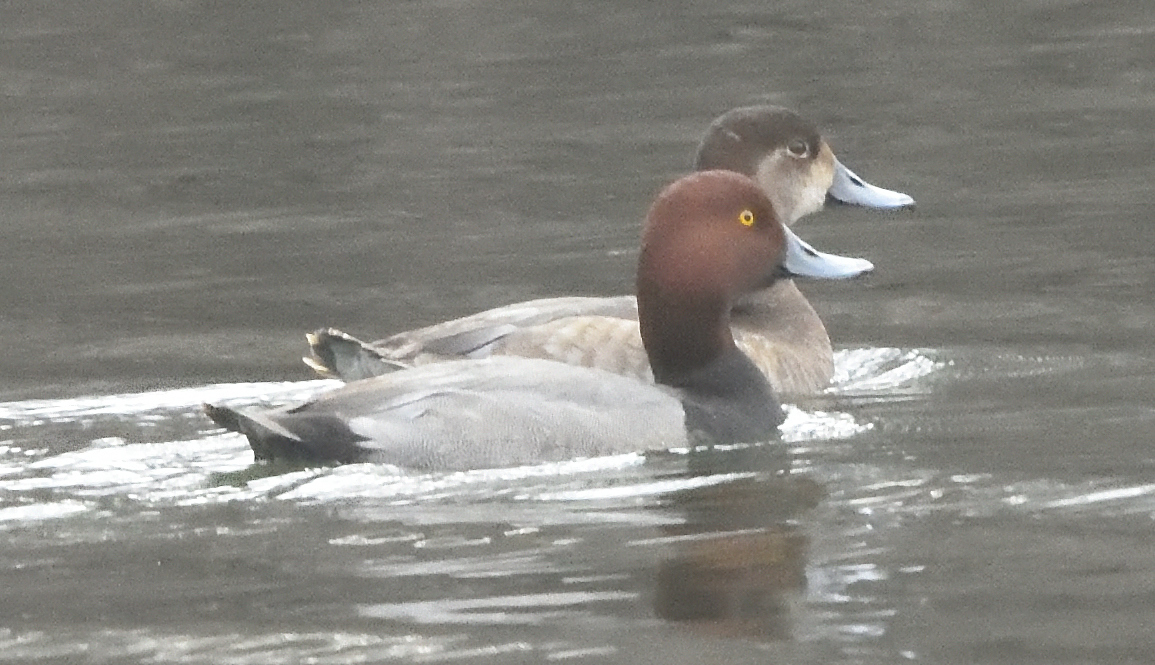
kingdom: Animalia
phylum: Chordata
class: Aves
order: Anseriformes
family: Anatidae
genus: Aythya
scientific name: Aythya americana
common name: Redhead
